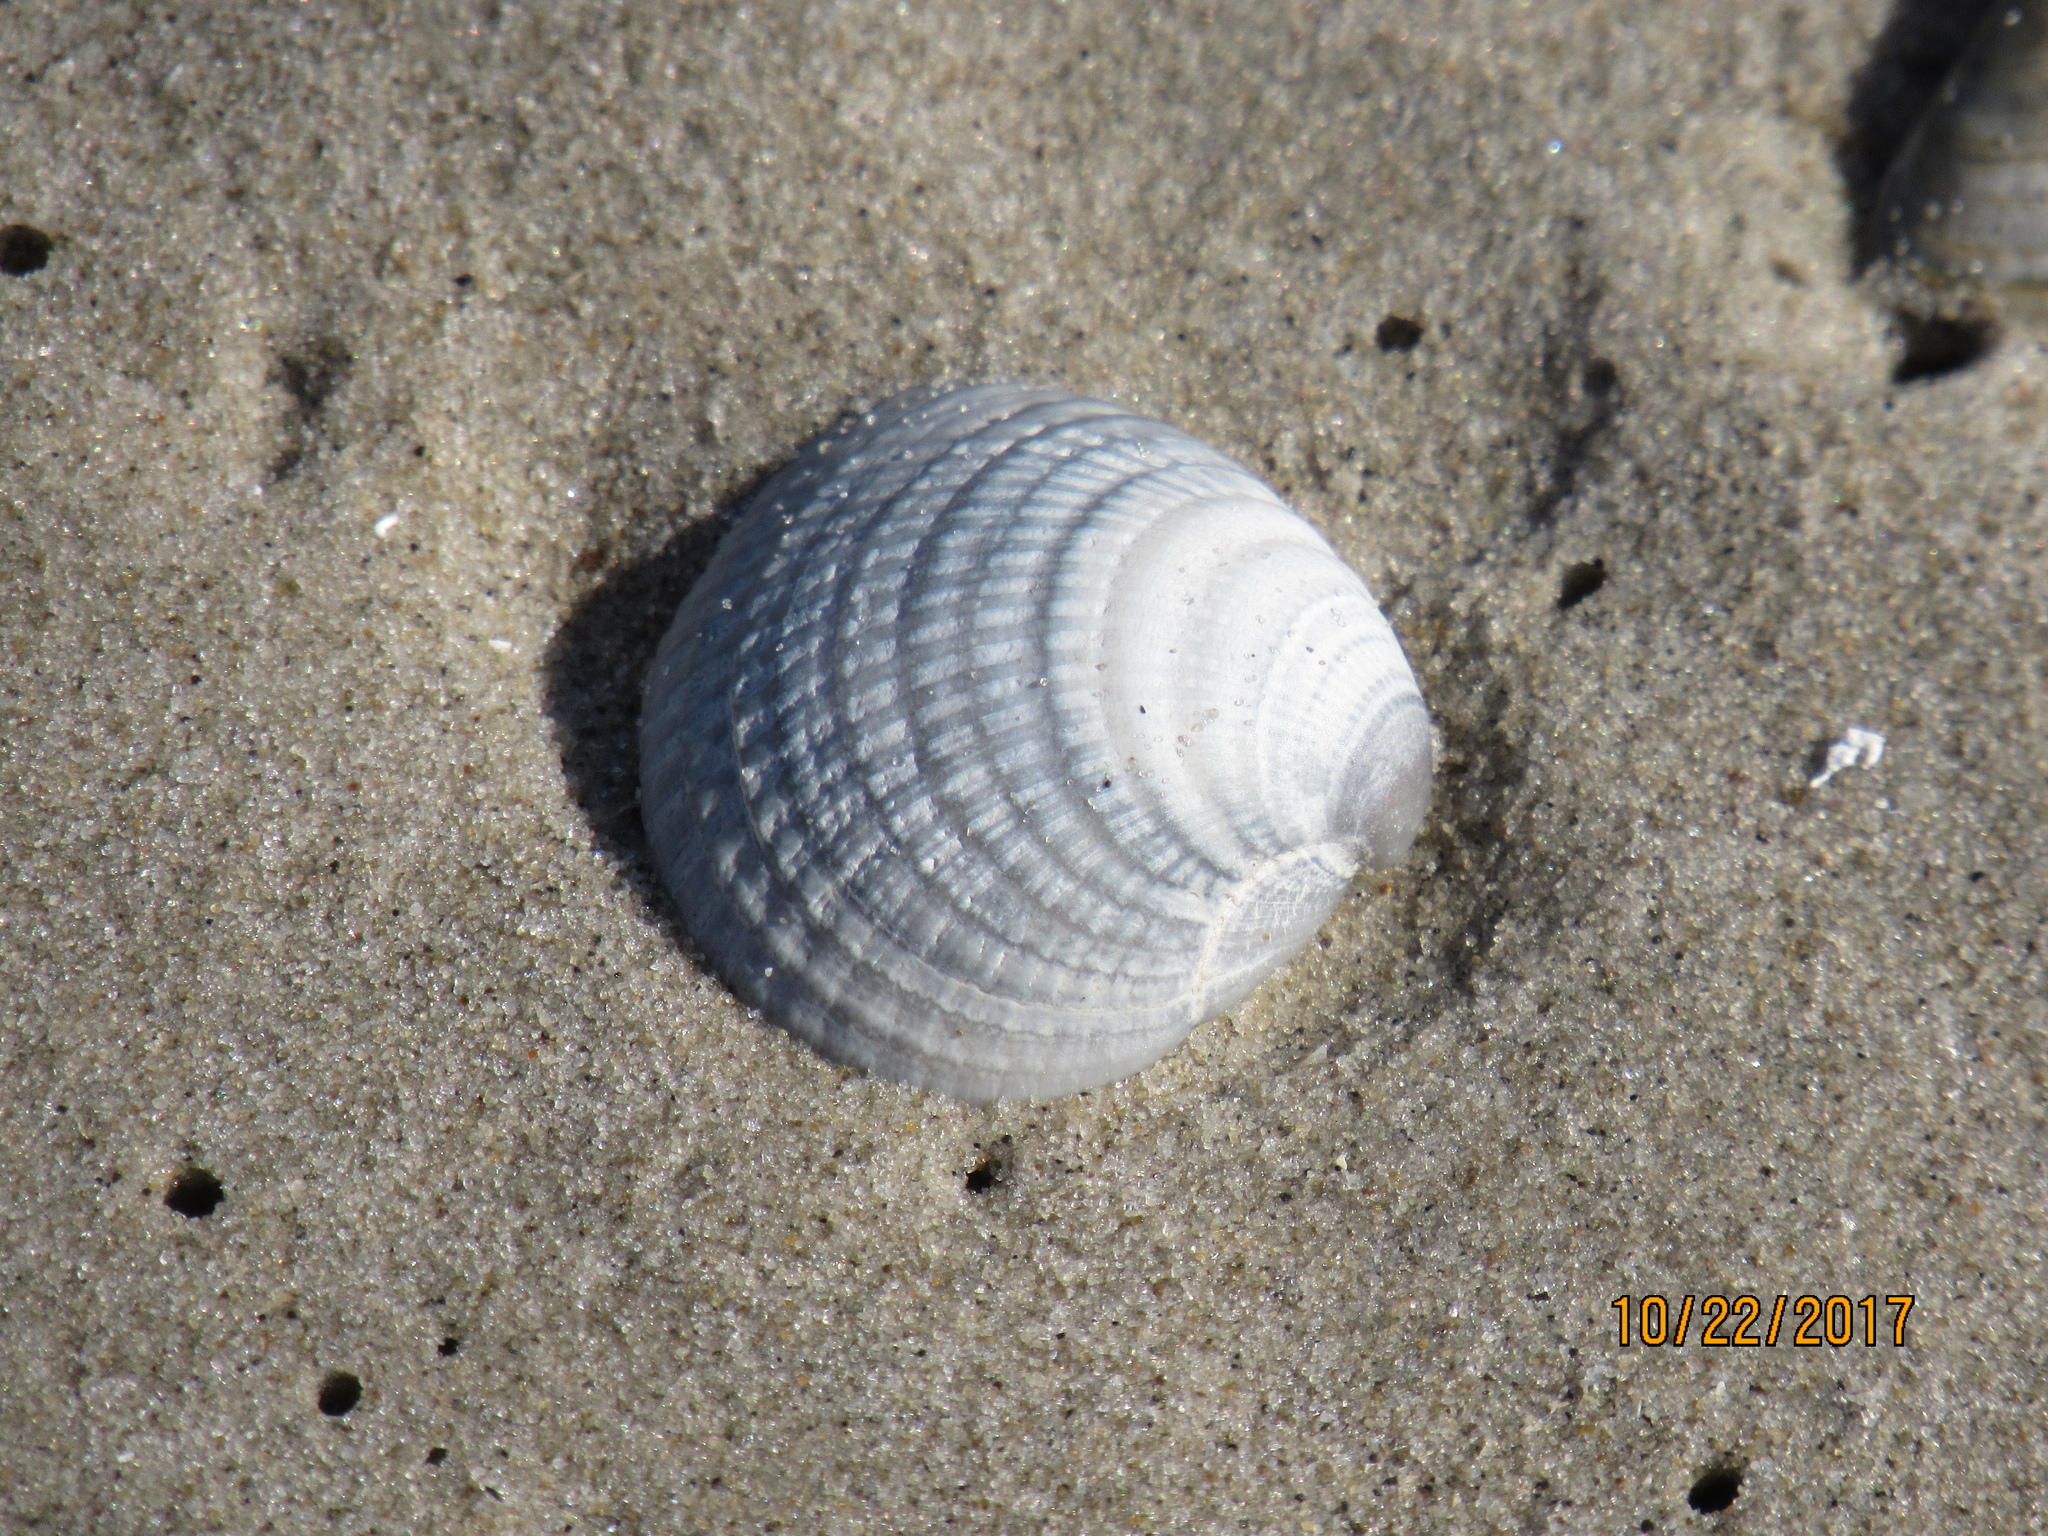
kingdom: Animalia
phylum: Mollusca
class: Bivalvia
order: Venerida
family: Veneridae
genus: Chione
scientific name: Chione elevata
